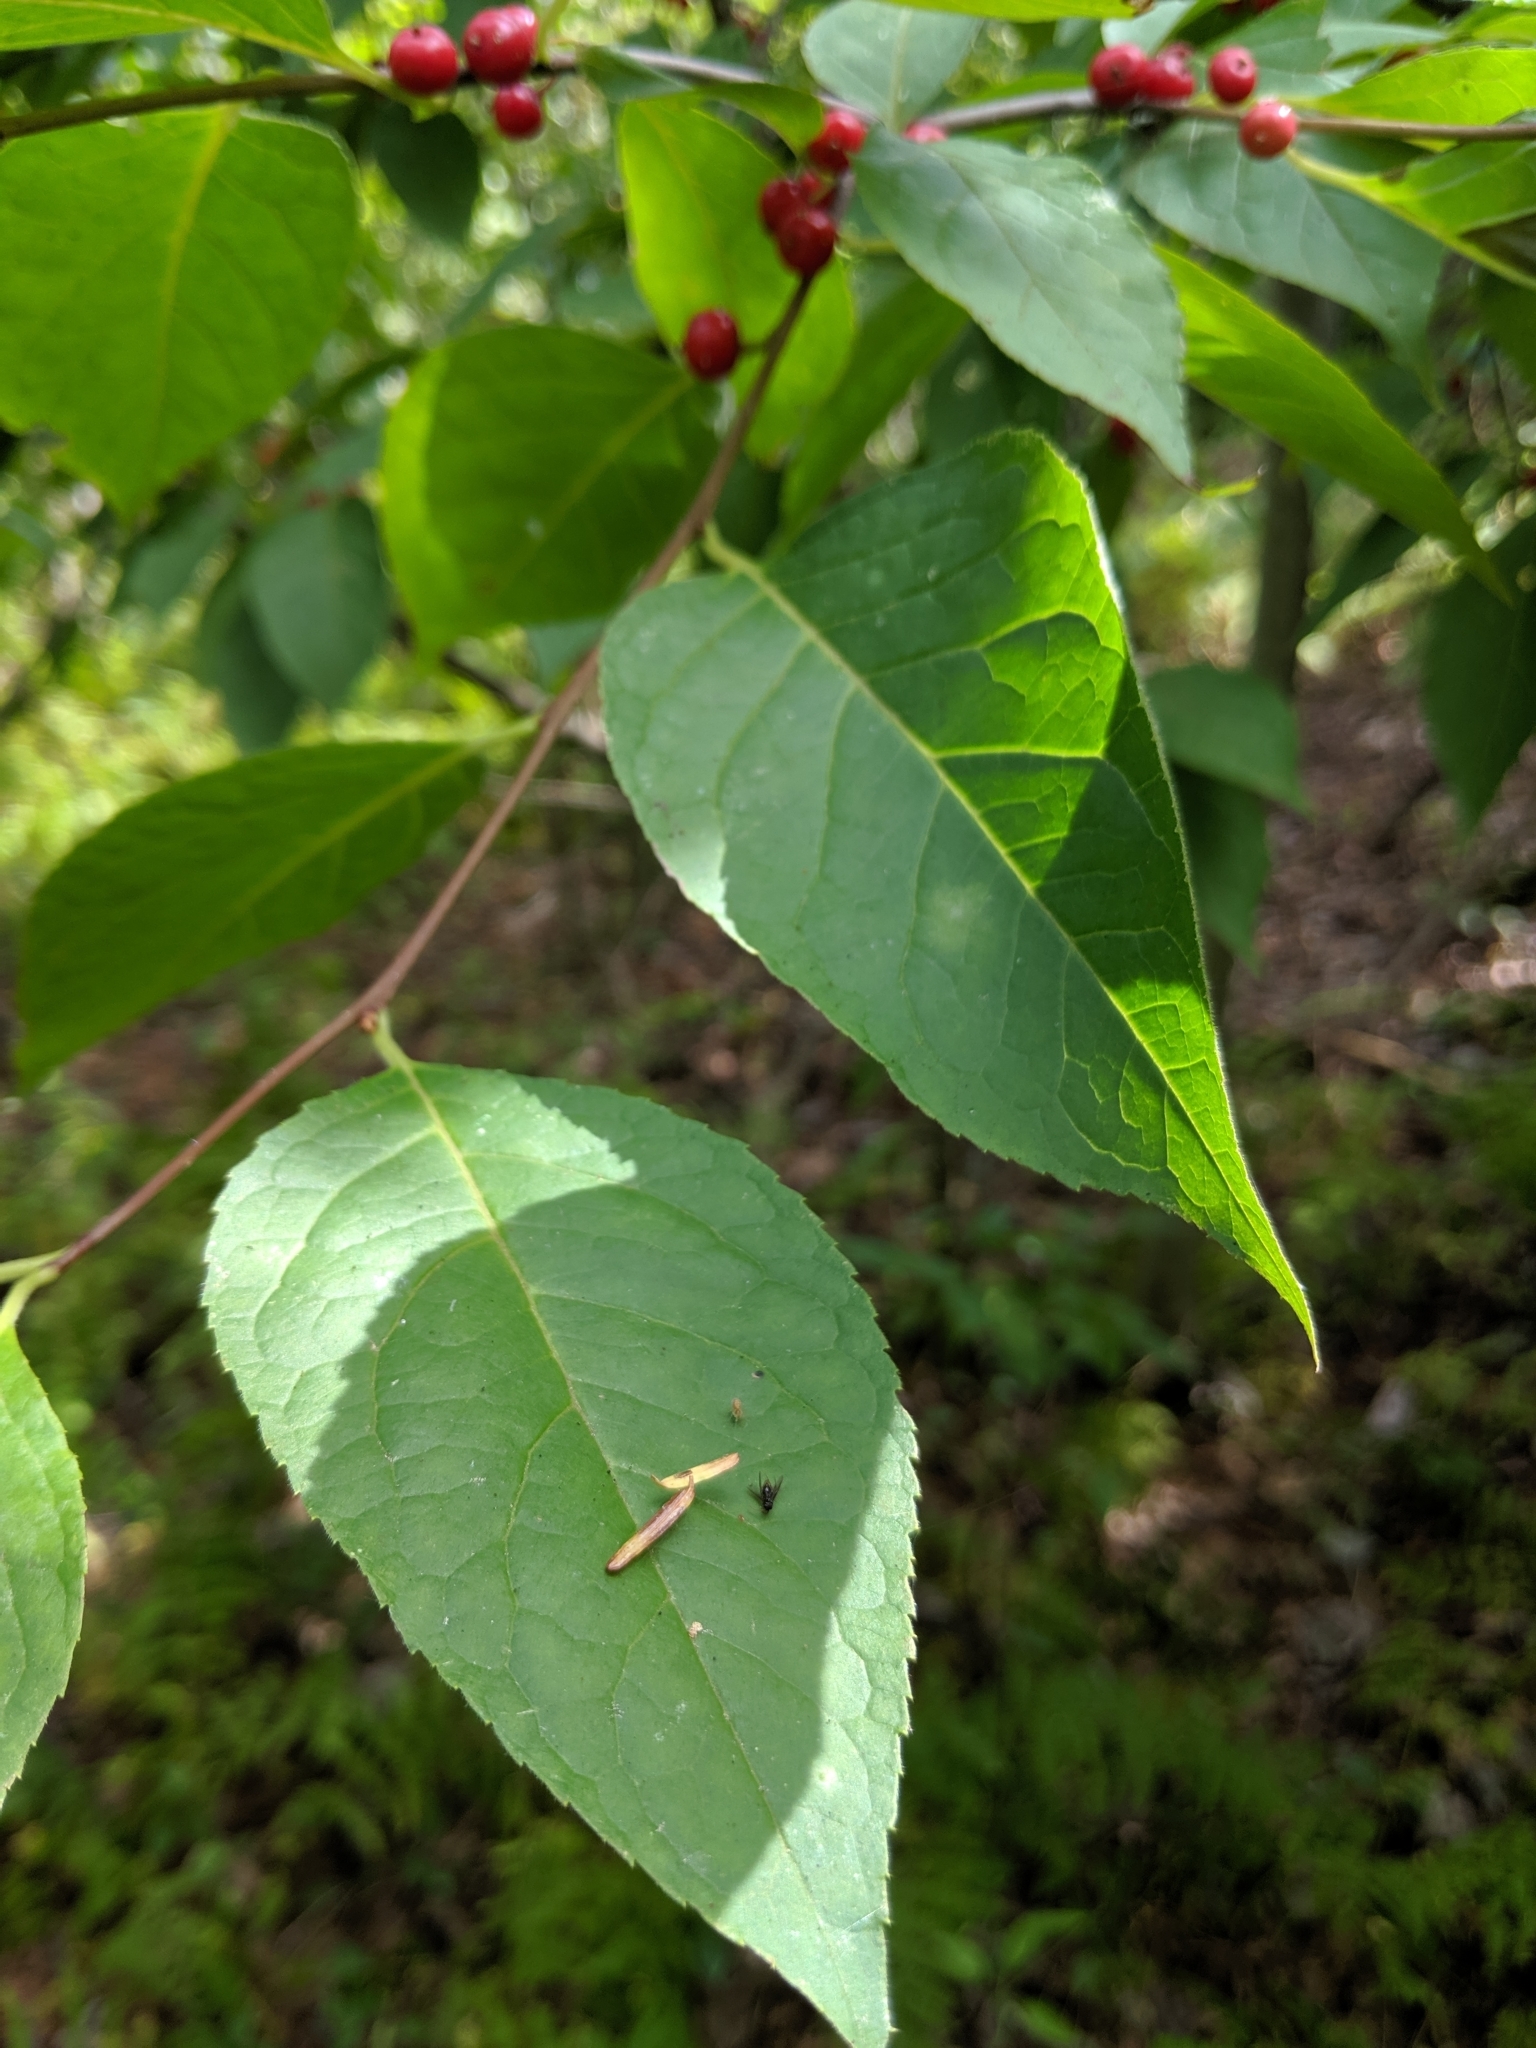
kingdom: Plantae
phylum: Tracheophyta
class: Magnoliopsida
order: Aquifoliales
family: Aquifoliaceae
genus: Ilex
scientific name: Ilex verticillata
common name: Virginia winterberry
